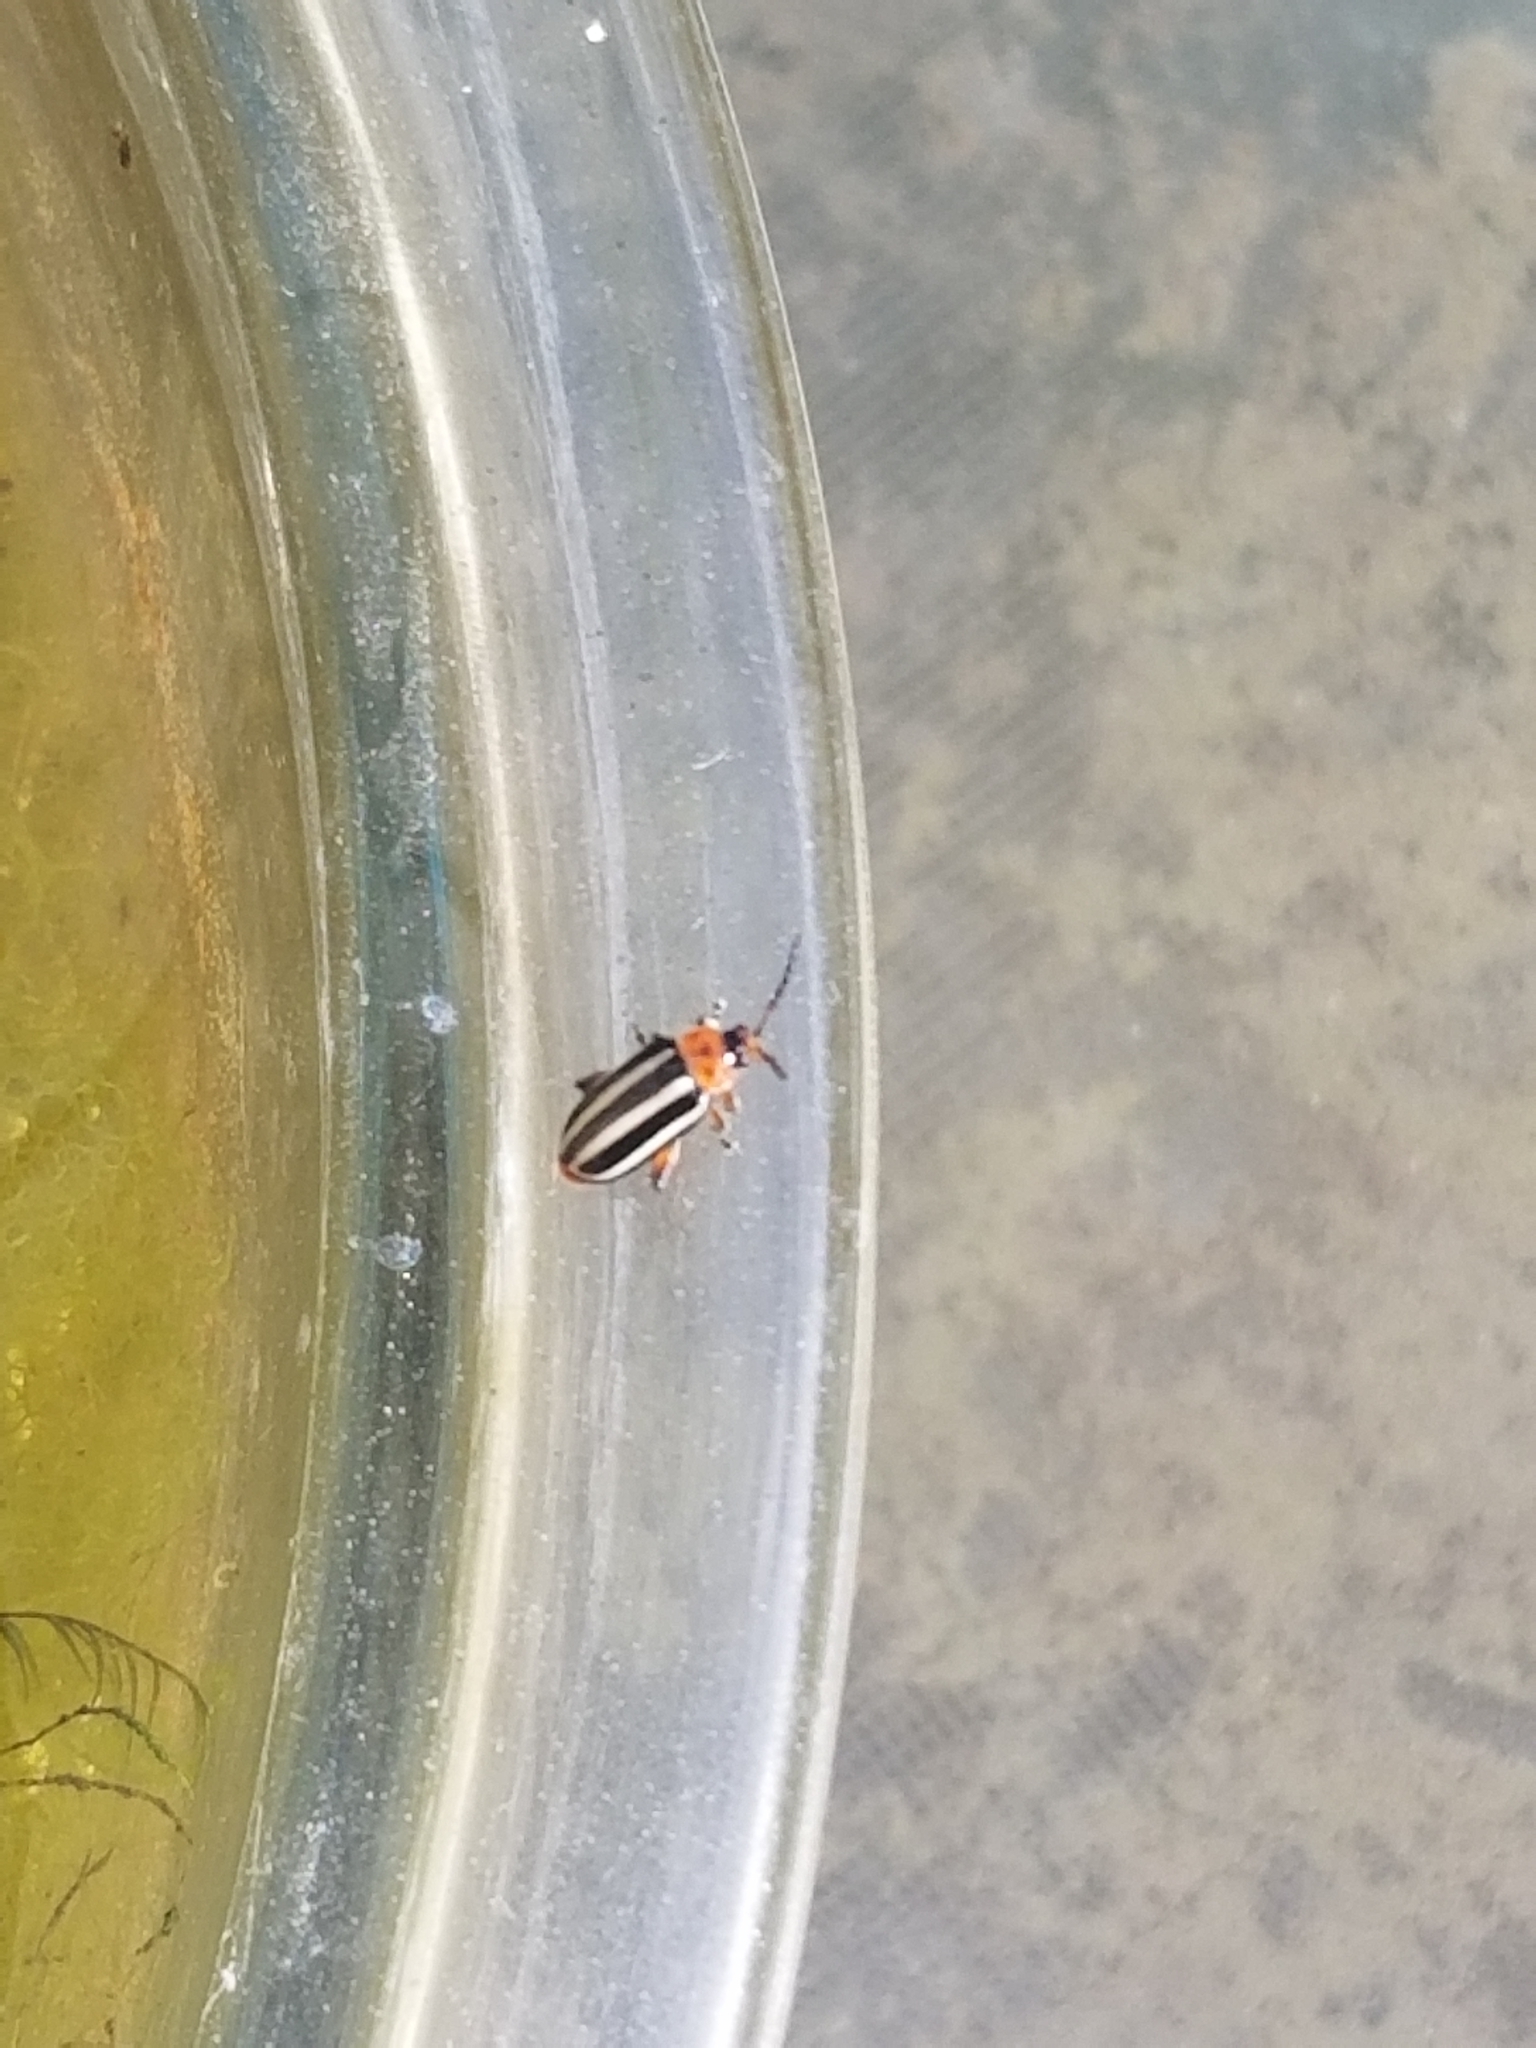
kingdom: Animalia
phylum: Arthropoda
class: Insecta
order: Coleoptera
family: Chrysomelidae
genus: Disonycha
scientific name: Disonycha glabrata
